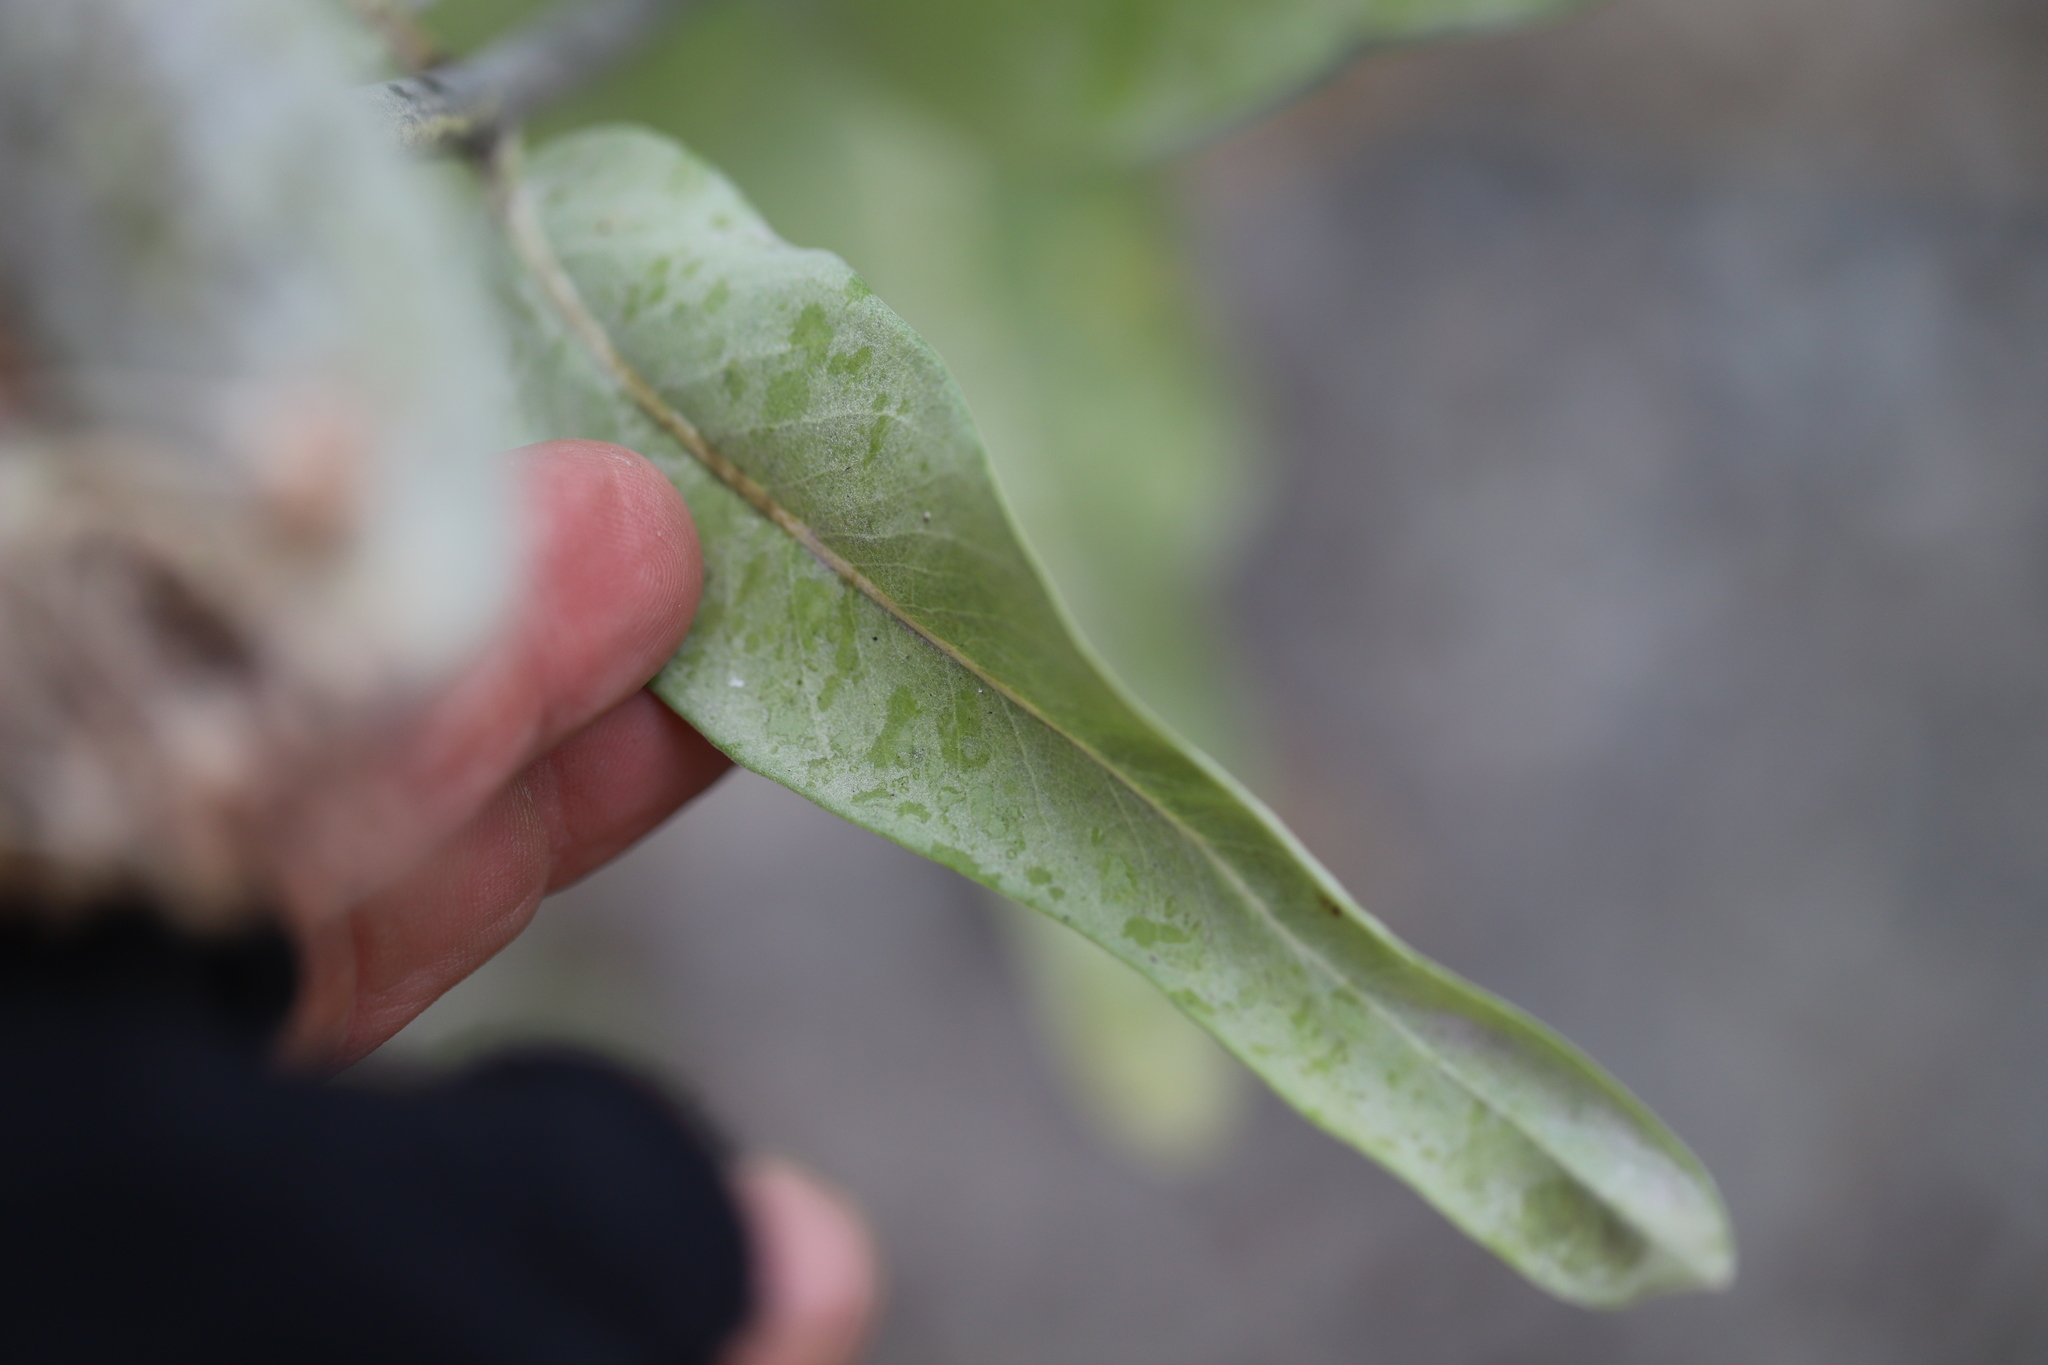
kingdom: Plantae
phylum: Tracheophyta
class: Magnoliopsida
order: Gentianales
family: Apocynaceae
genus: Asclepias
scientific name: Asclepias speciosa
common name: Showy milkweed
